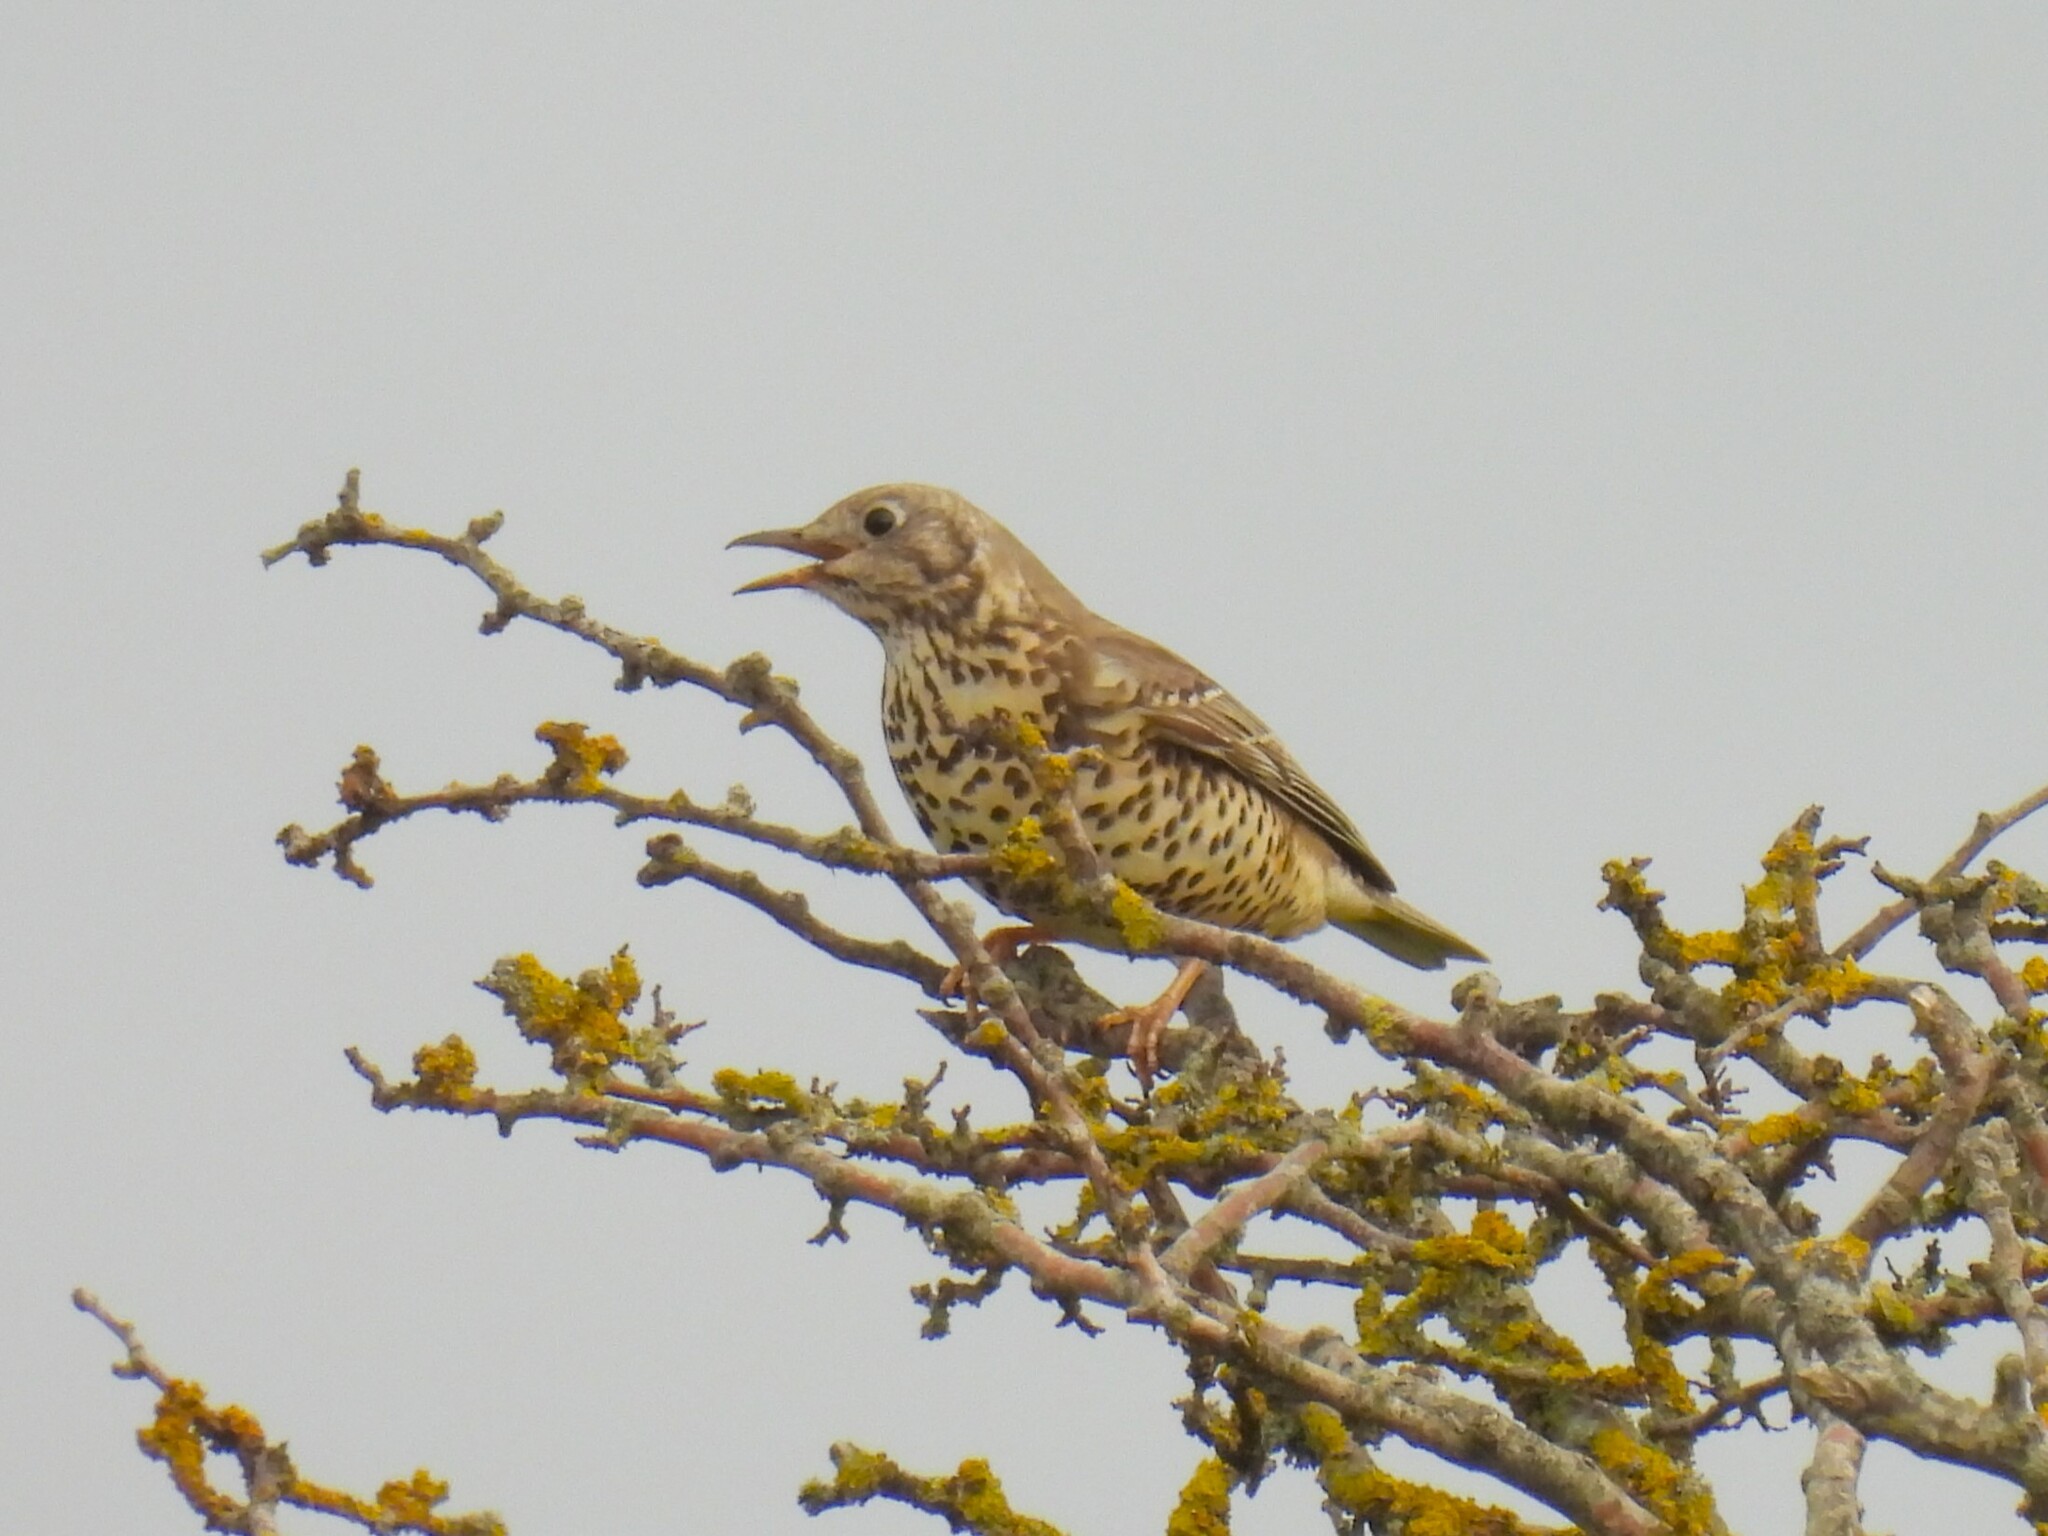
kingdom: Animalia
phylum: Chordata
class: Aves
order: Passeriformes
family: Turdidae
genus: Turdus
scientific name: Turdus viscivorus
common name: Mistle thrush
